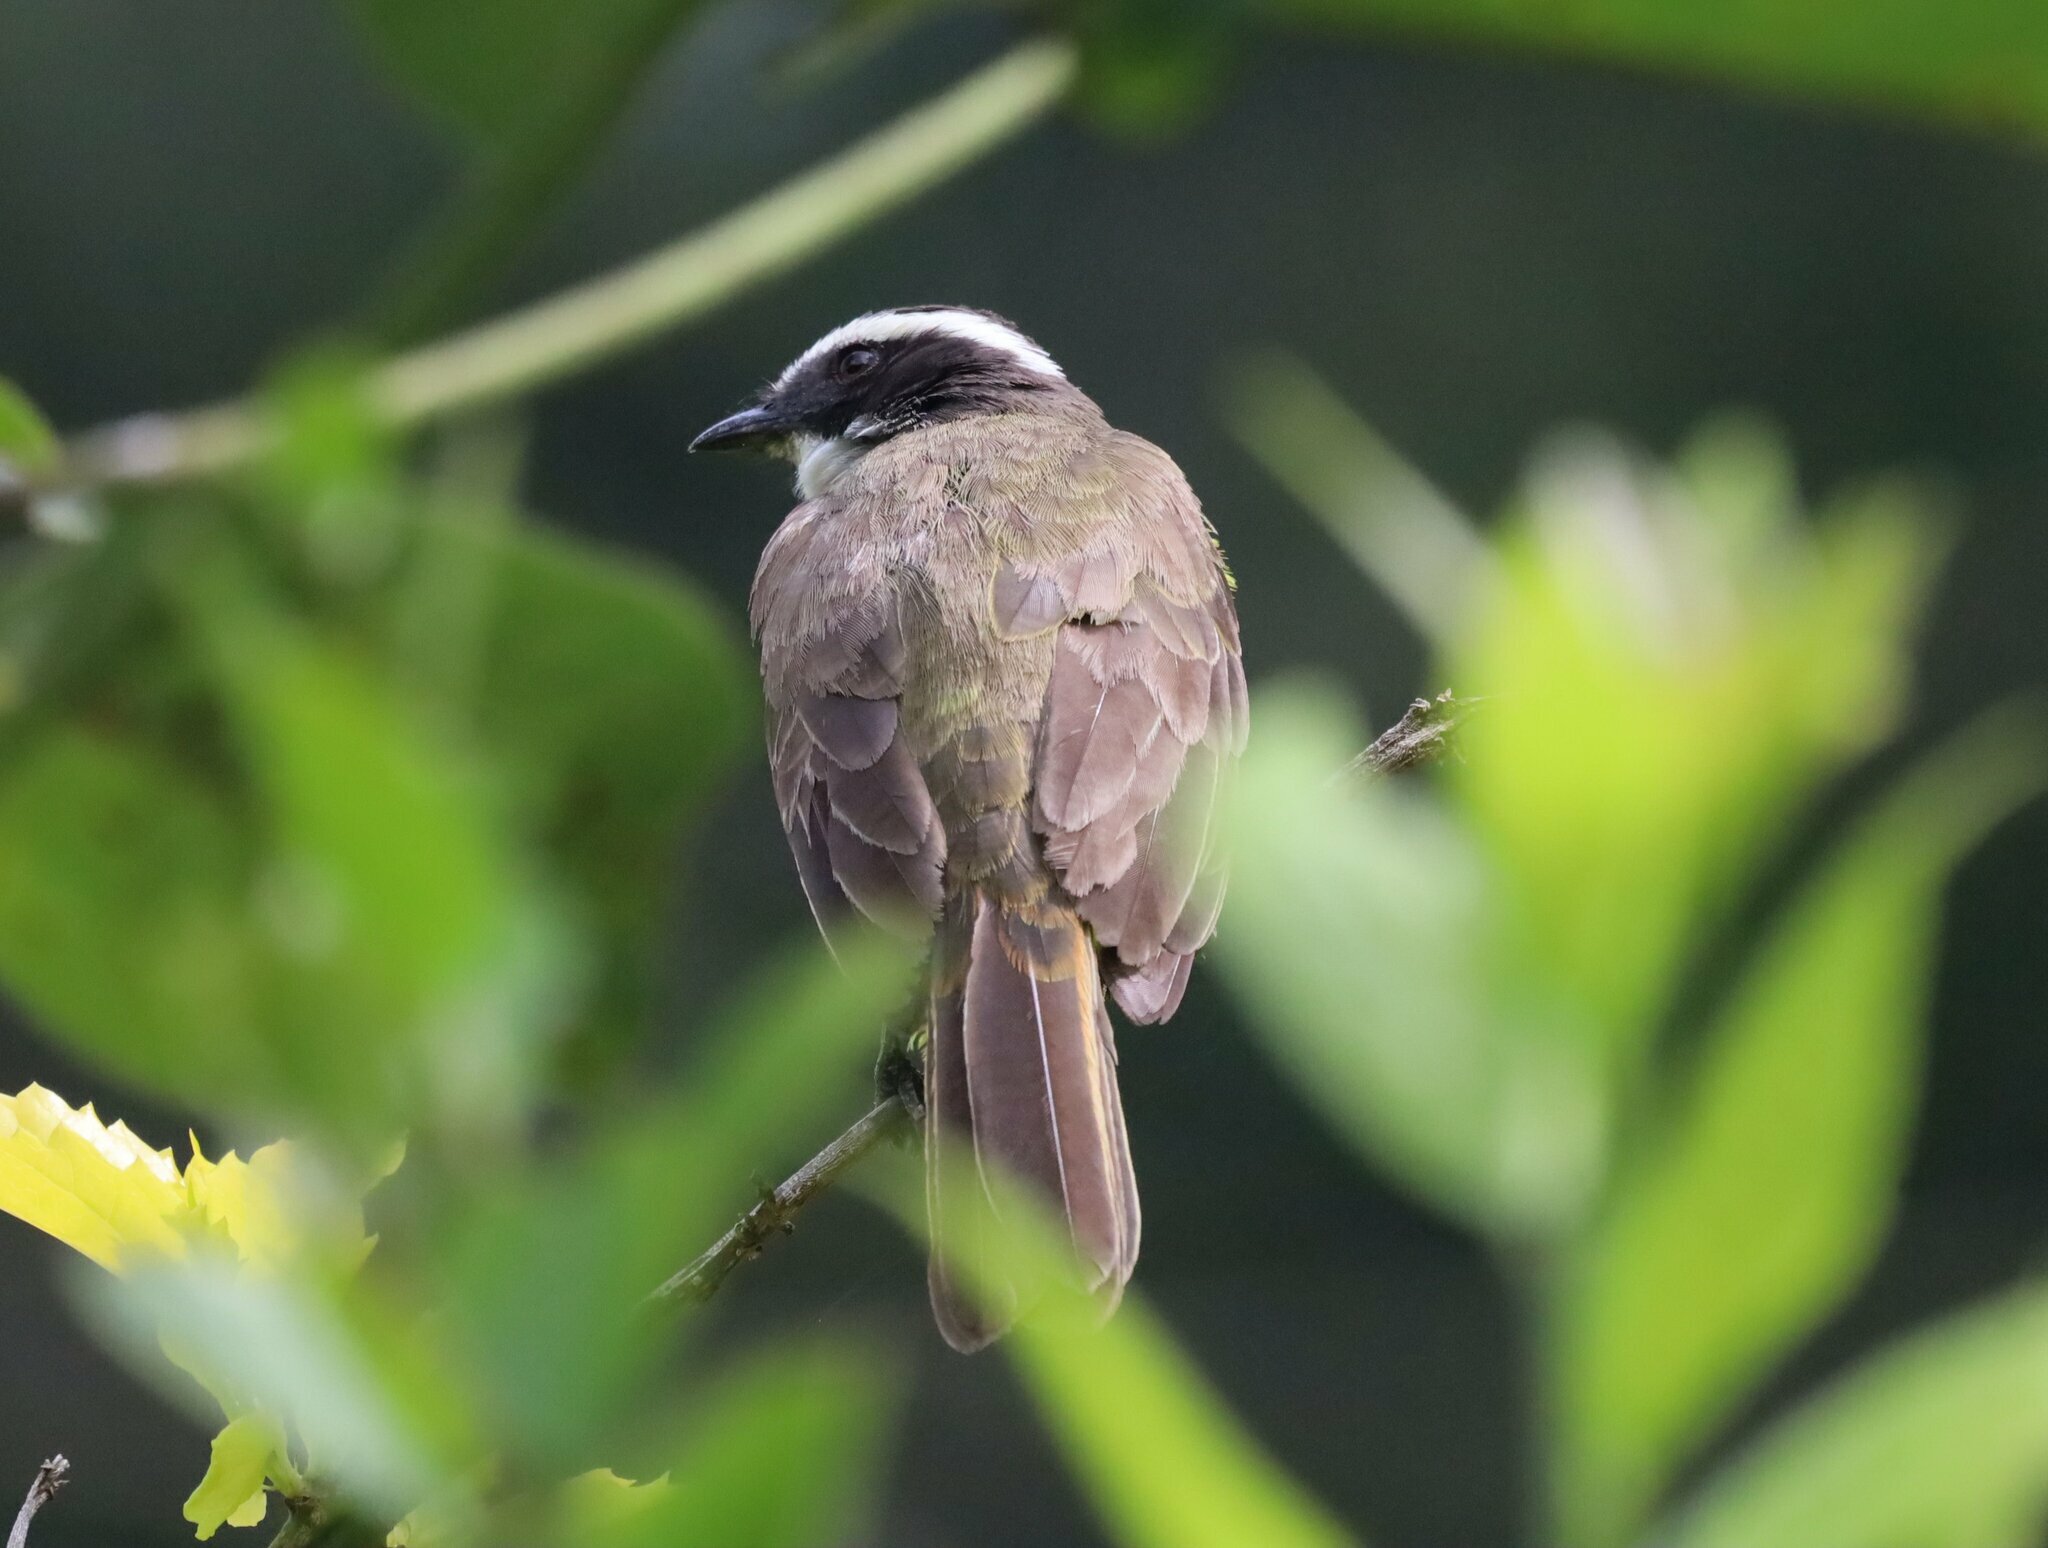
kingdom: Animalia
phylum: Chordata
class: Aves
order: Passeriformes
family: Tyrannidae
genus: Myiozetetes
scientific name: Myiozetetes cayanensis
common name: Rusty-margined flycatcher
